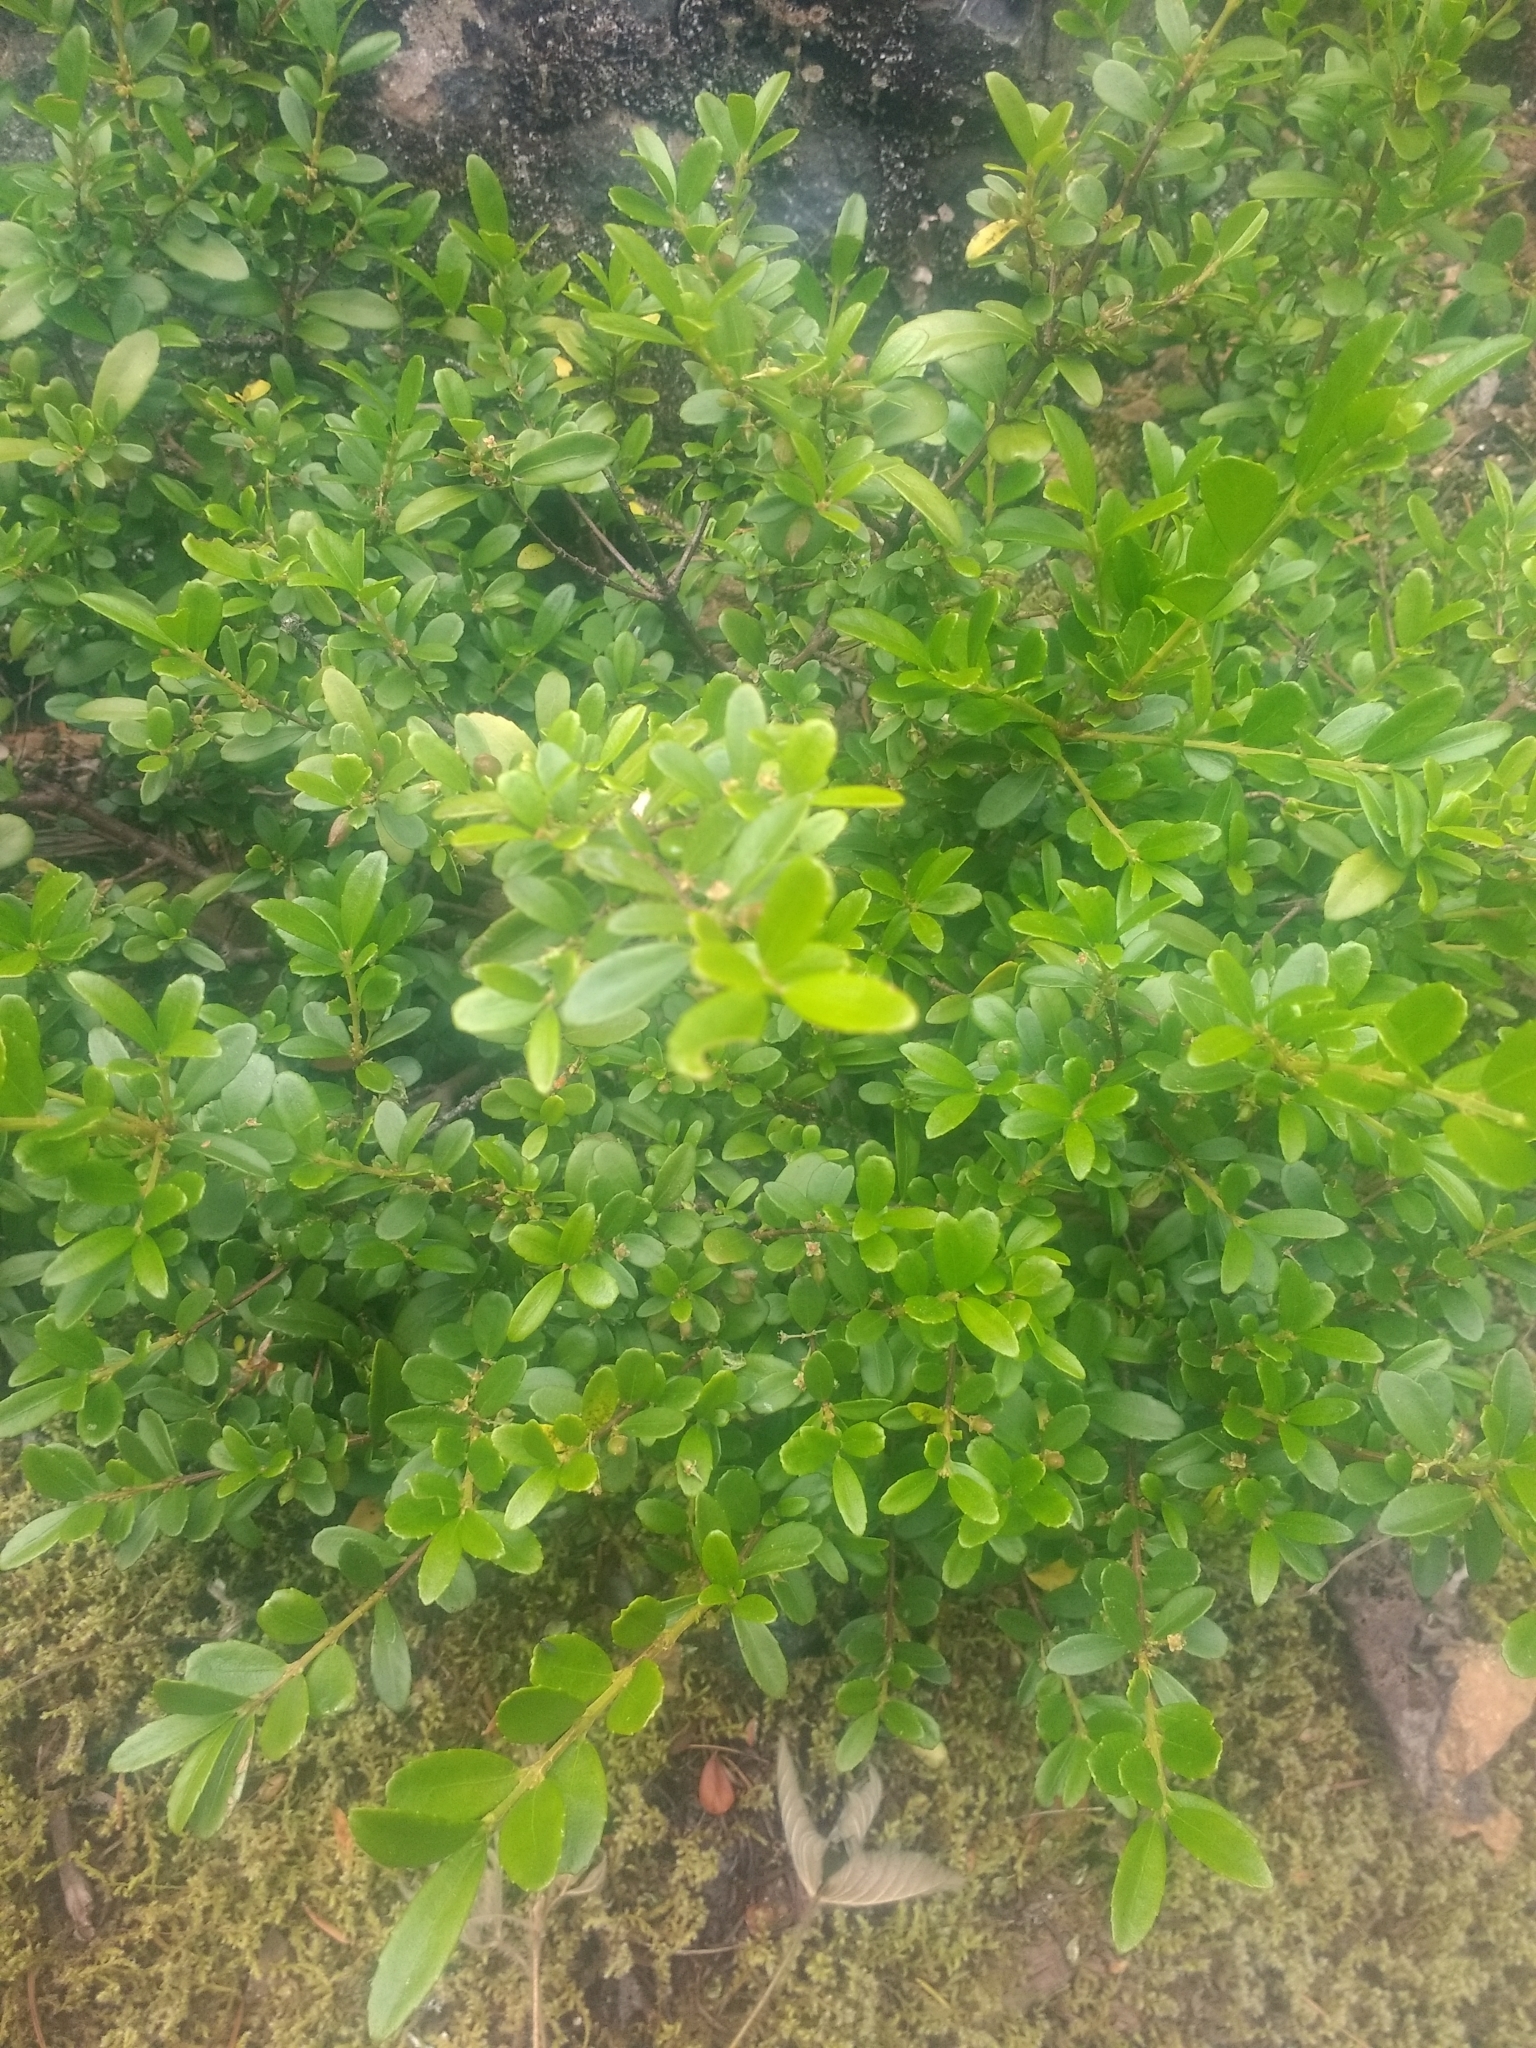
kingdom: Plantae
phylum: Tracheophyta
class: Magnoliopsida
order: Celastrales
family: Celastraceae
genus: Paxistima
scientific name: Paxistima myrsinites
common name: Mountain-lover
